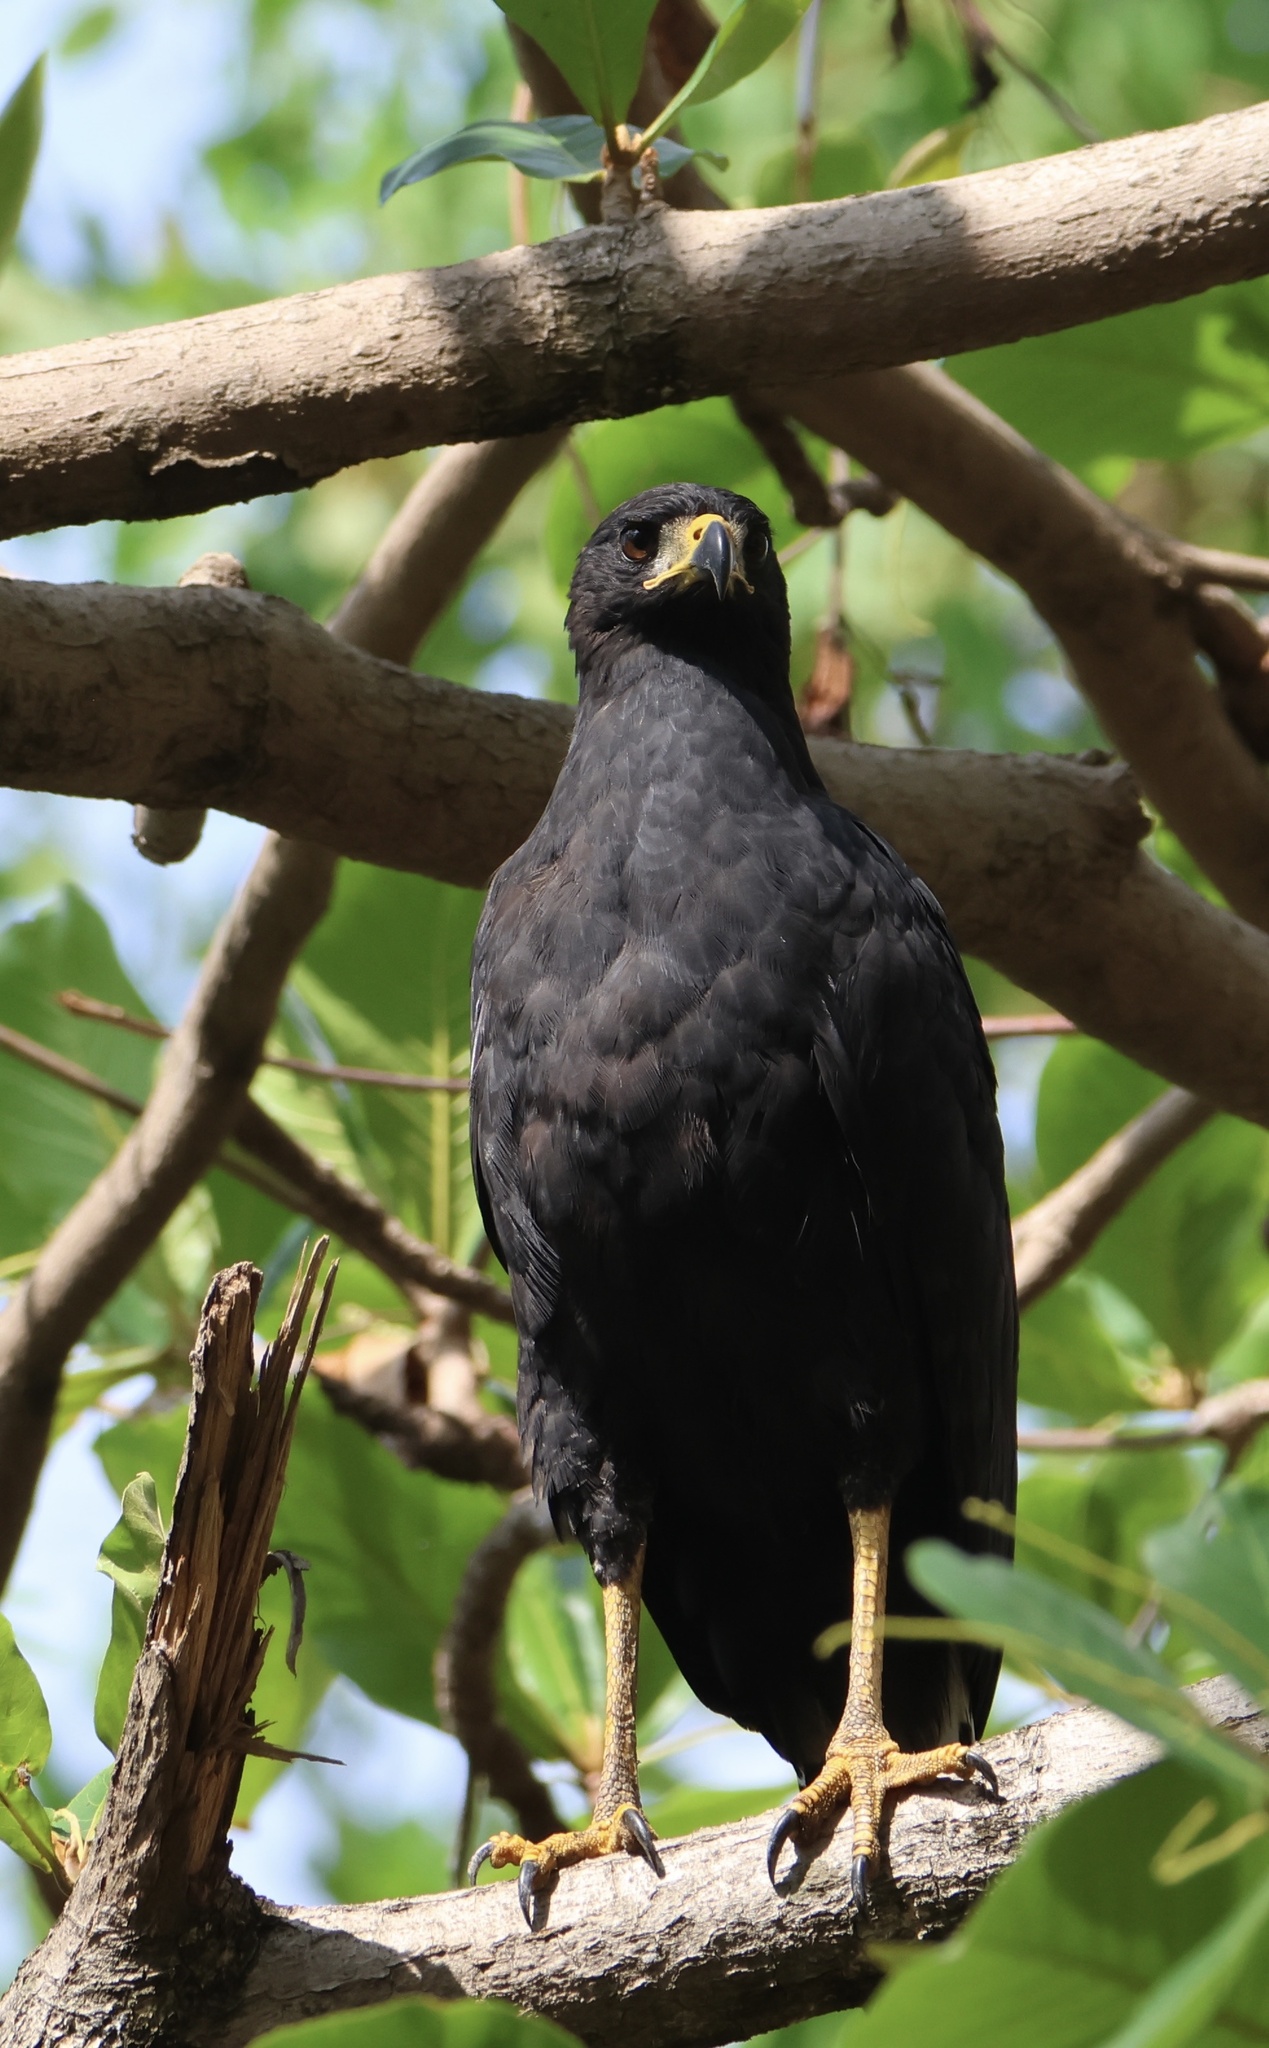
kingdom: Animalia
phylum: Chordata
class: Aves
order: Accipitriformes
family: Accipitridae
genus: Buteogallus
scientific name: Buteogallus urubitinga
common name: Great black hawk
